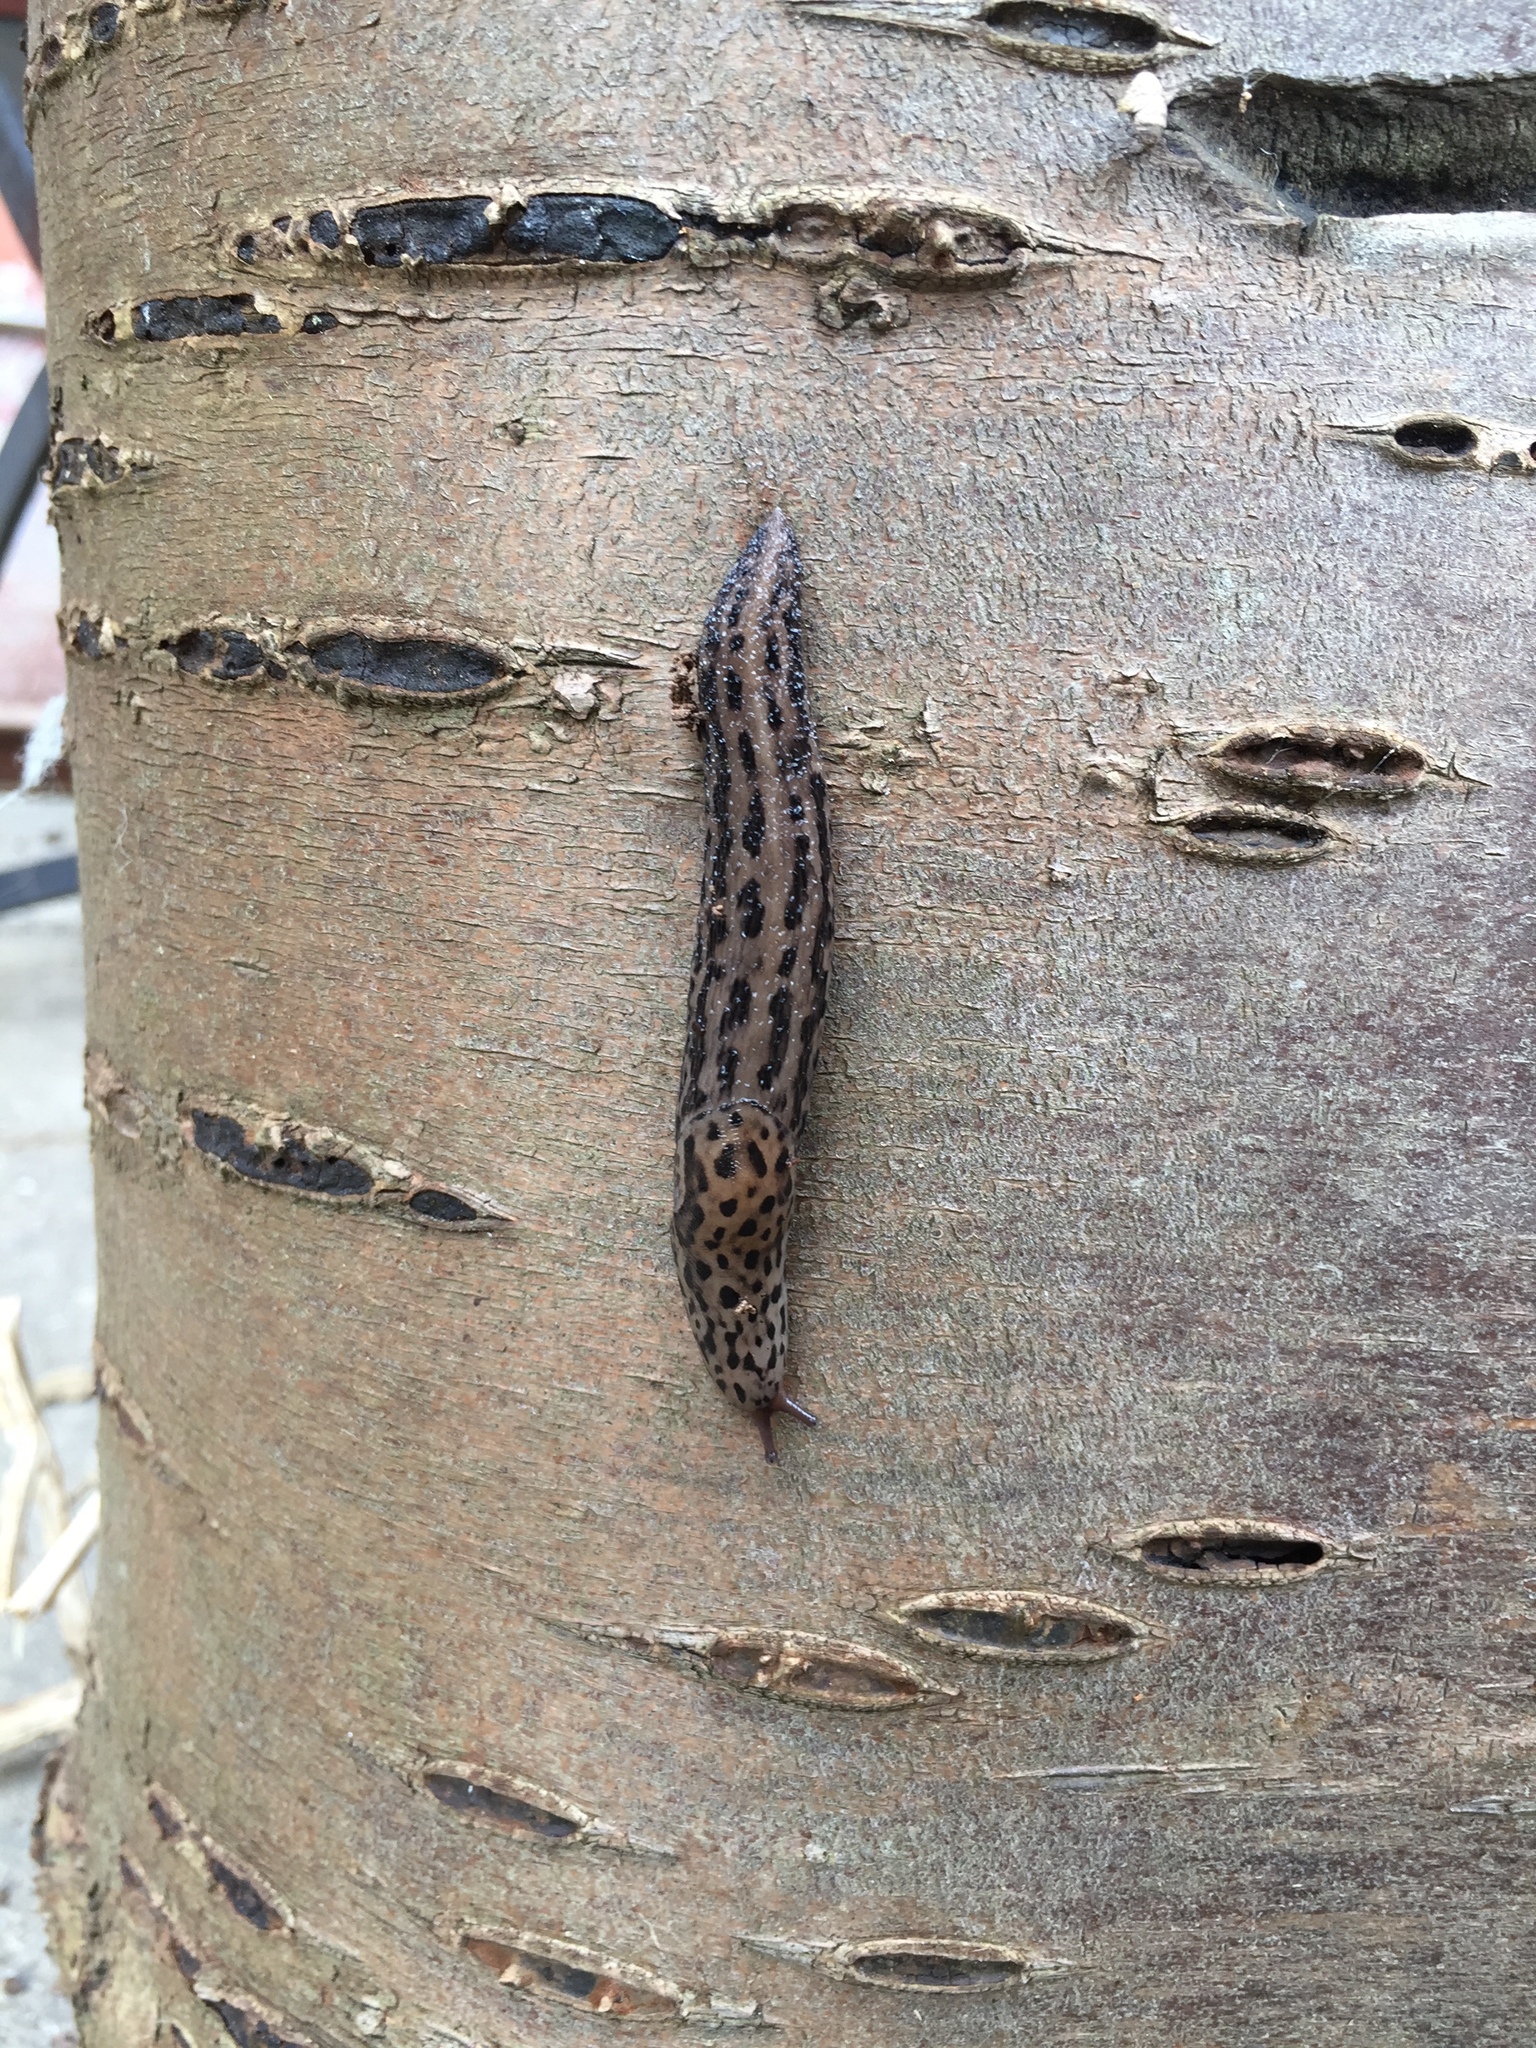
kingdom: Animalia
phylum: Mollusca
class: Gastropoda
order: Stylommatophora
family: Limacidae
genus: Limax
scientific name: Limax maximus
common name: Great grey slug
